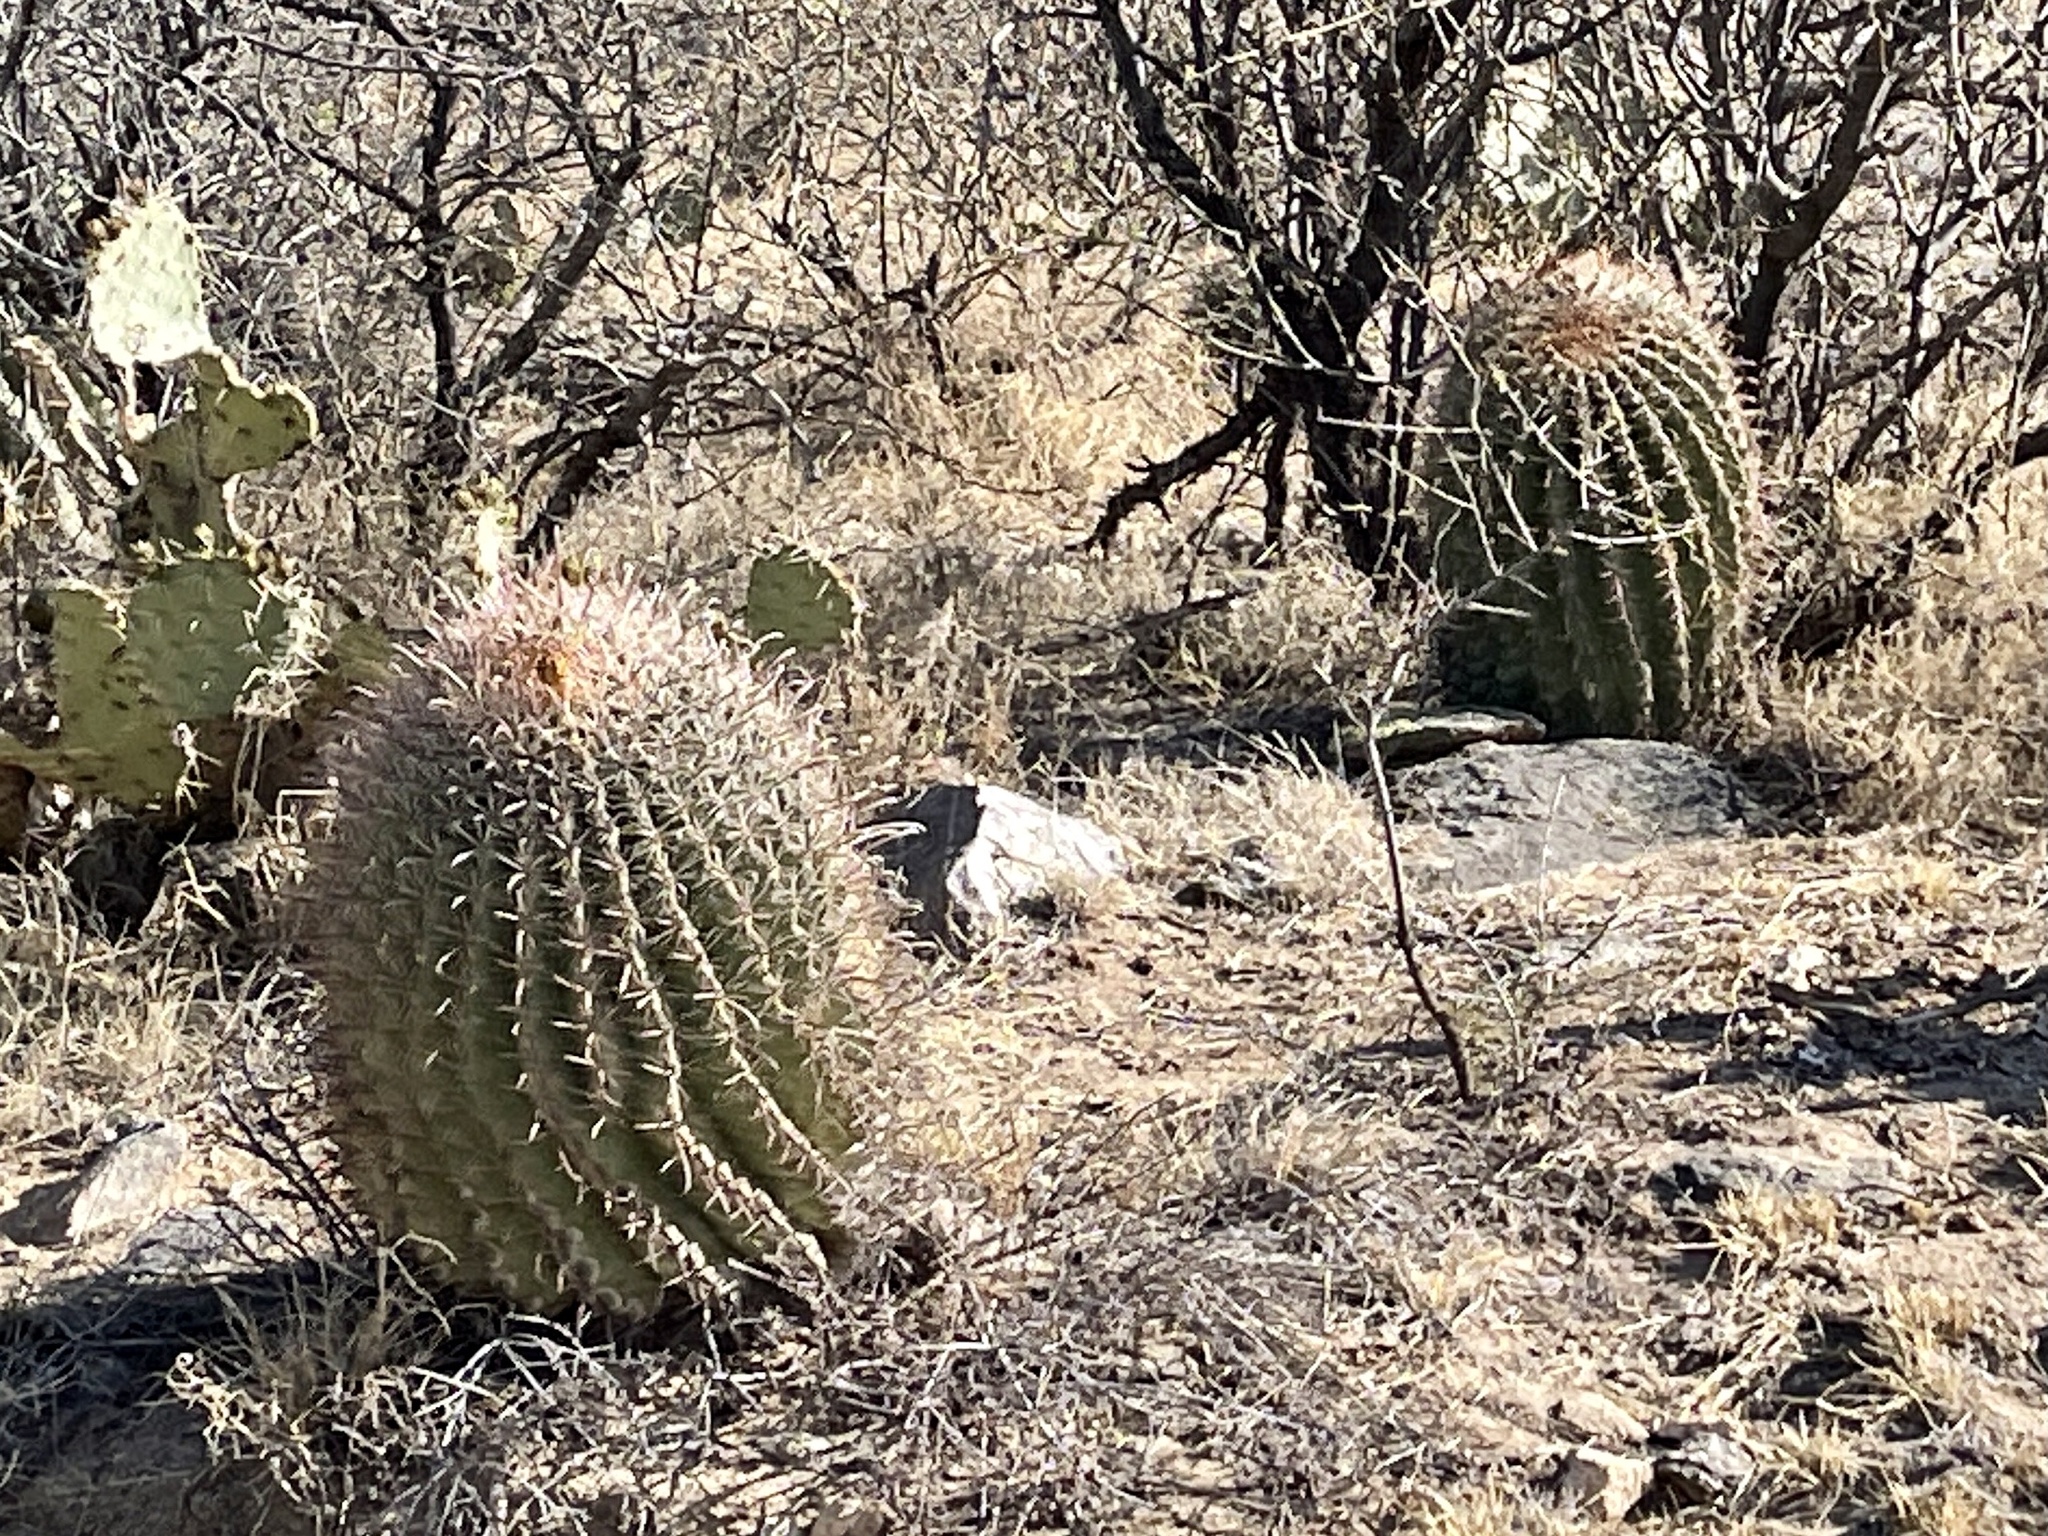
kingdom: Plantae
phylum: Tracheophyta
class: Magnoliopsida
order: Caryophyllales
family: Cactaceae
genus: Ferocactus
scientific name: Ferocactus wislizeni
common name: Candy barrel cactus
